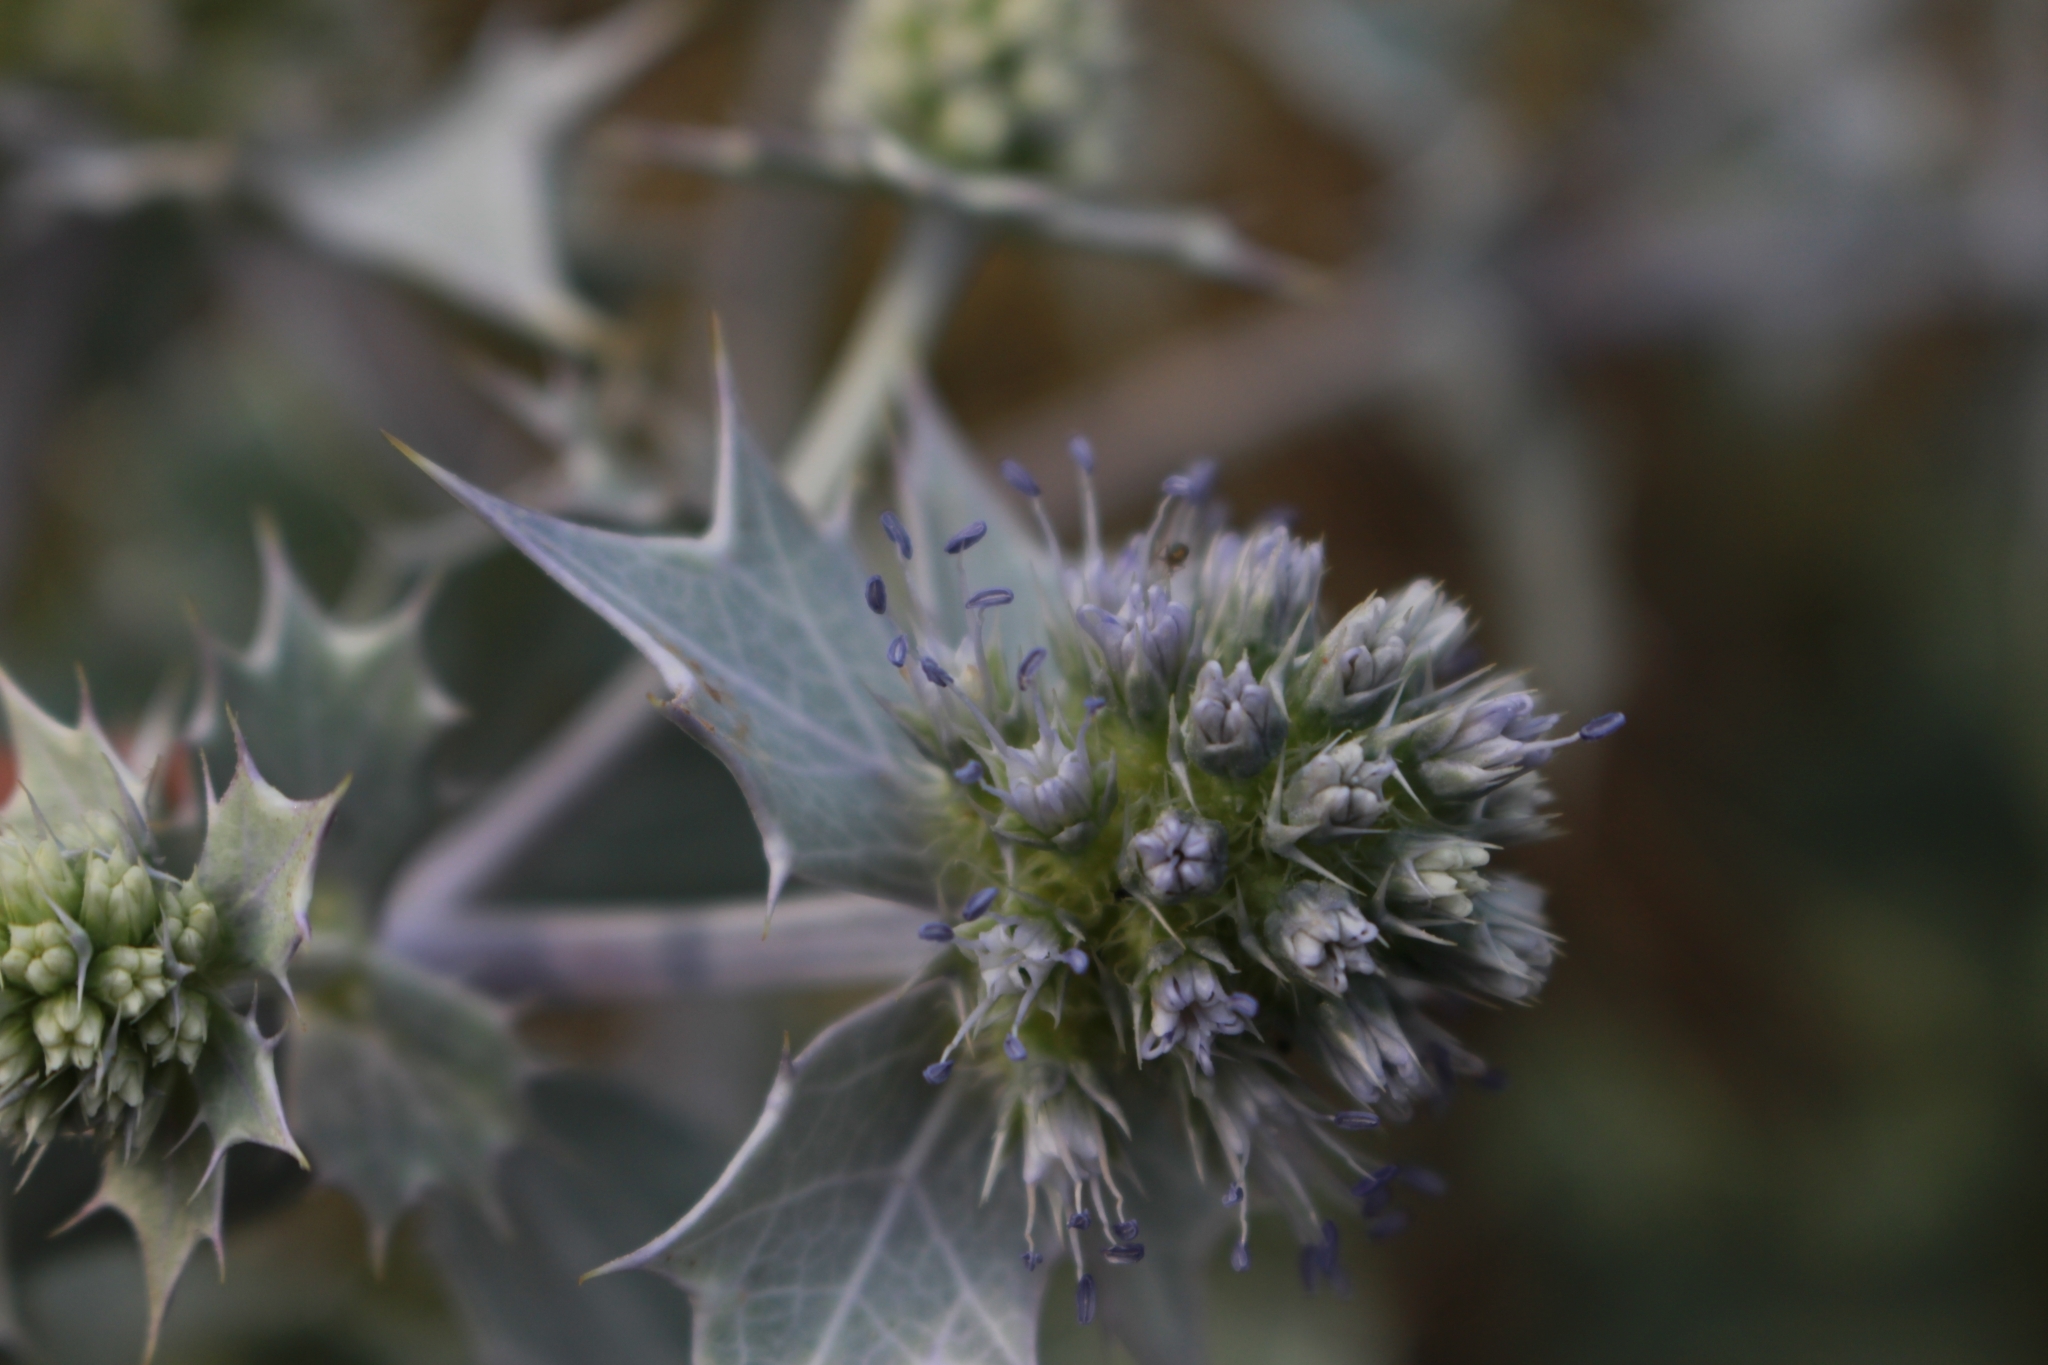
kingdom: Plantae
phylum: Tracheophyta
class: Magnoliopsida
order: Apiales
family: Apiaceae
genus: Eryngium
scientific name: Eryngium maritimum
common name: Sea-holly
